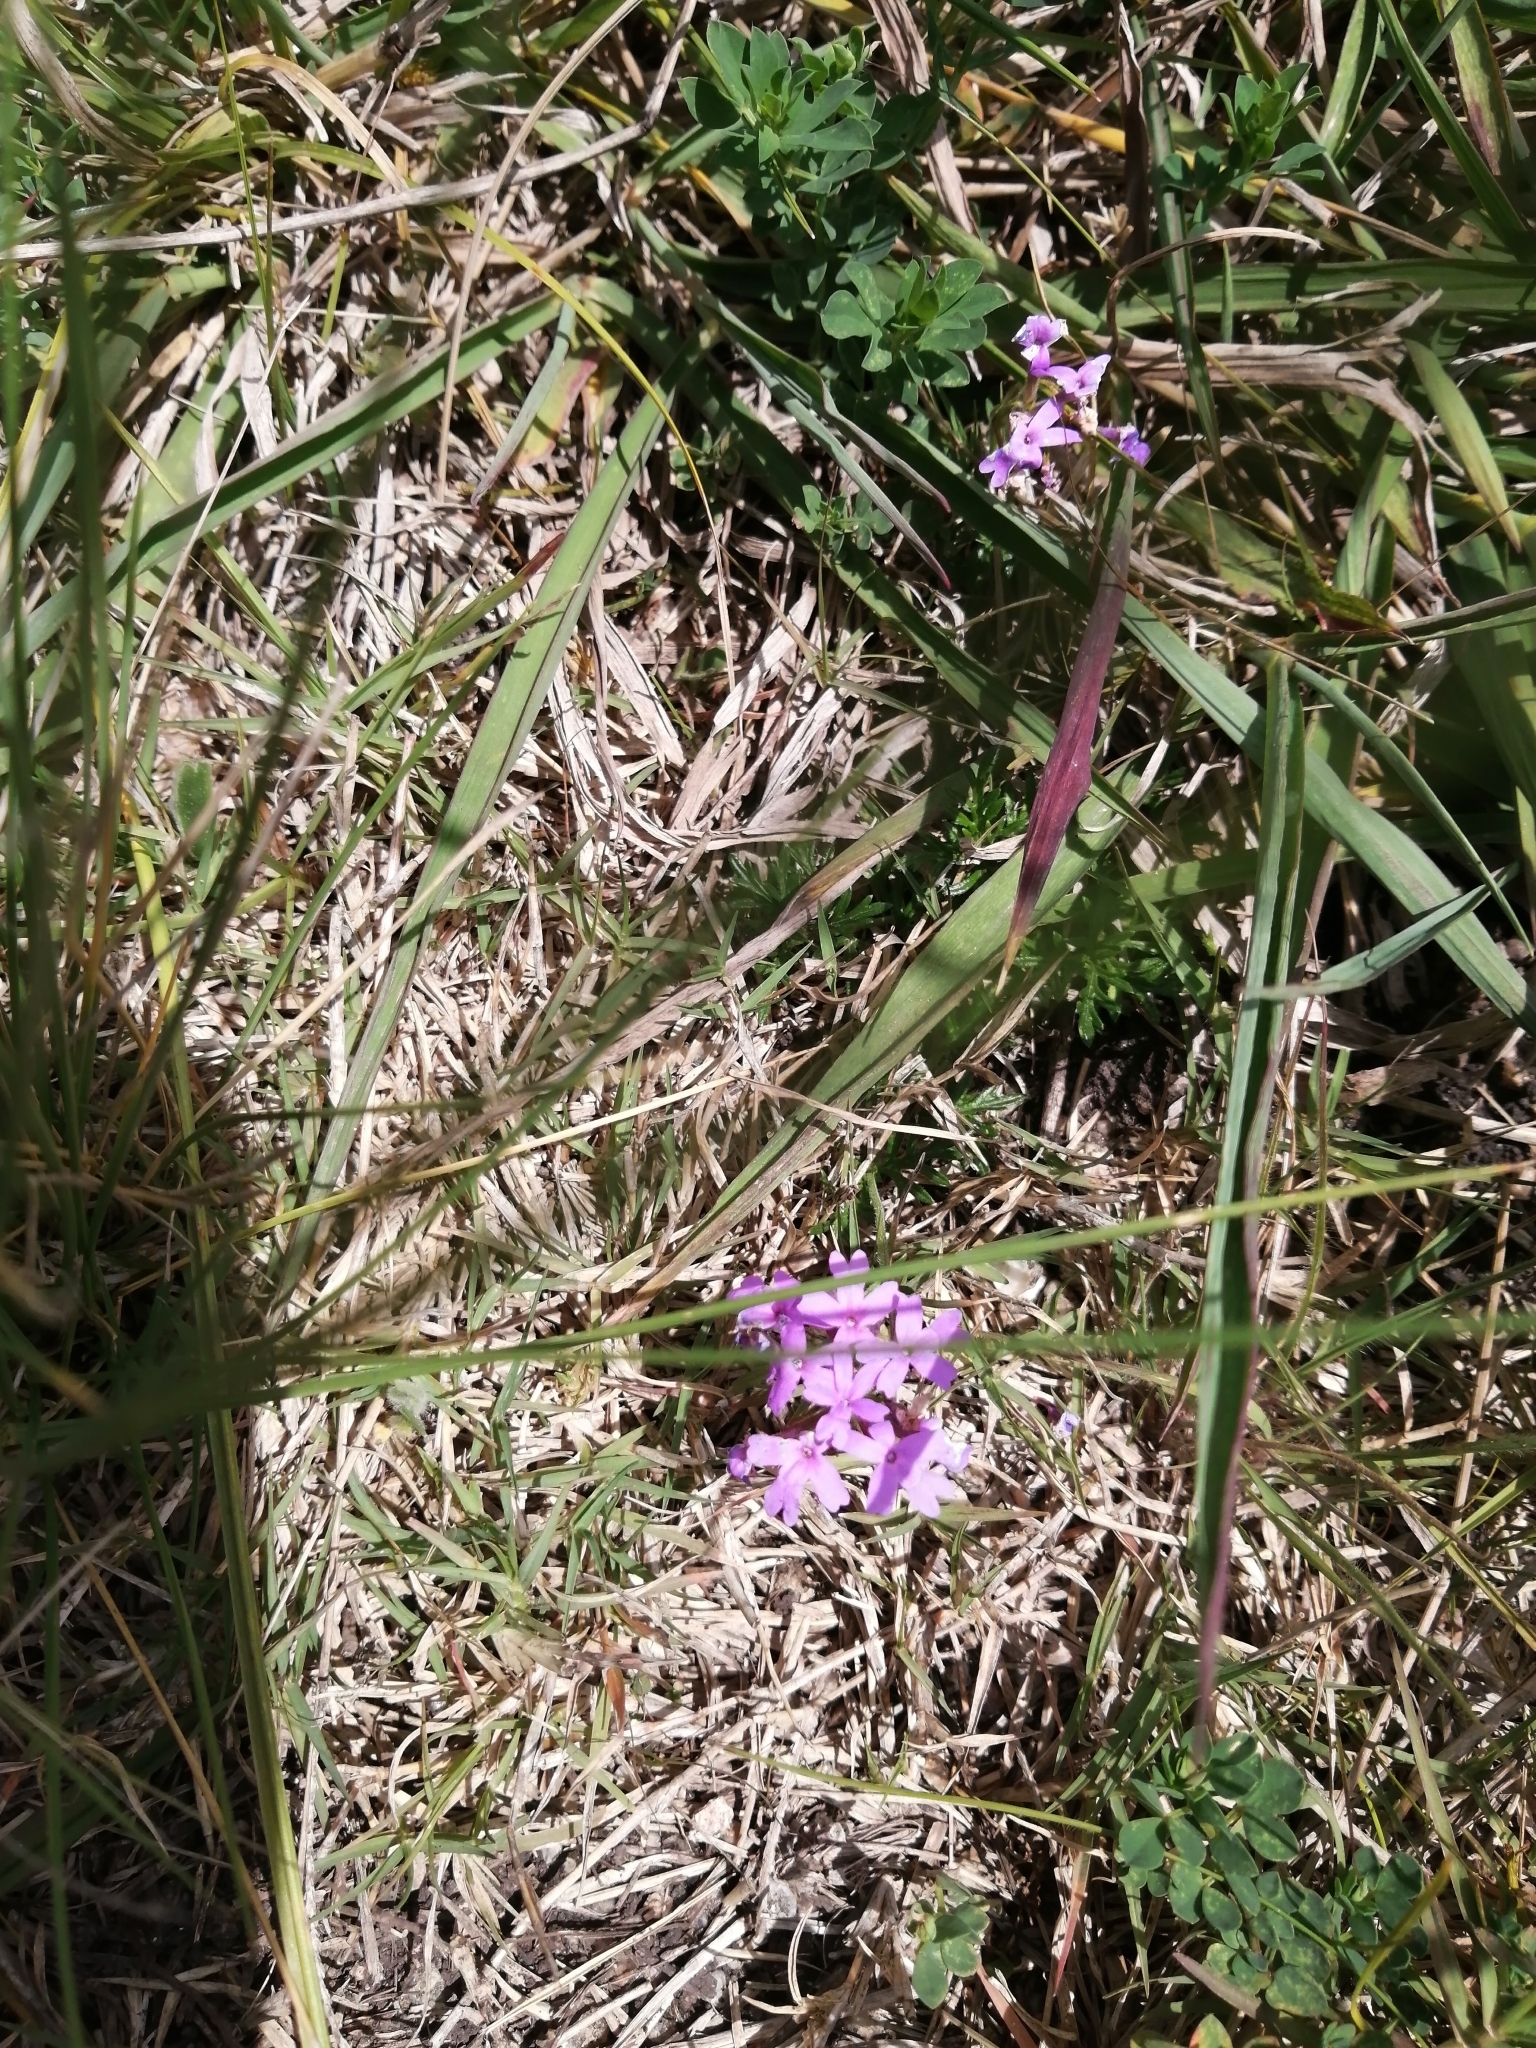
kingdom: Plantae
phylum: Tracheophyta
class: Magnoliopsida
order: Lamiales
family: Verbenaceae
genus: Verbena
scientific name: Verbena selloi
